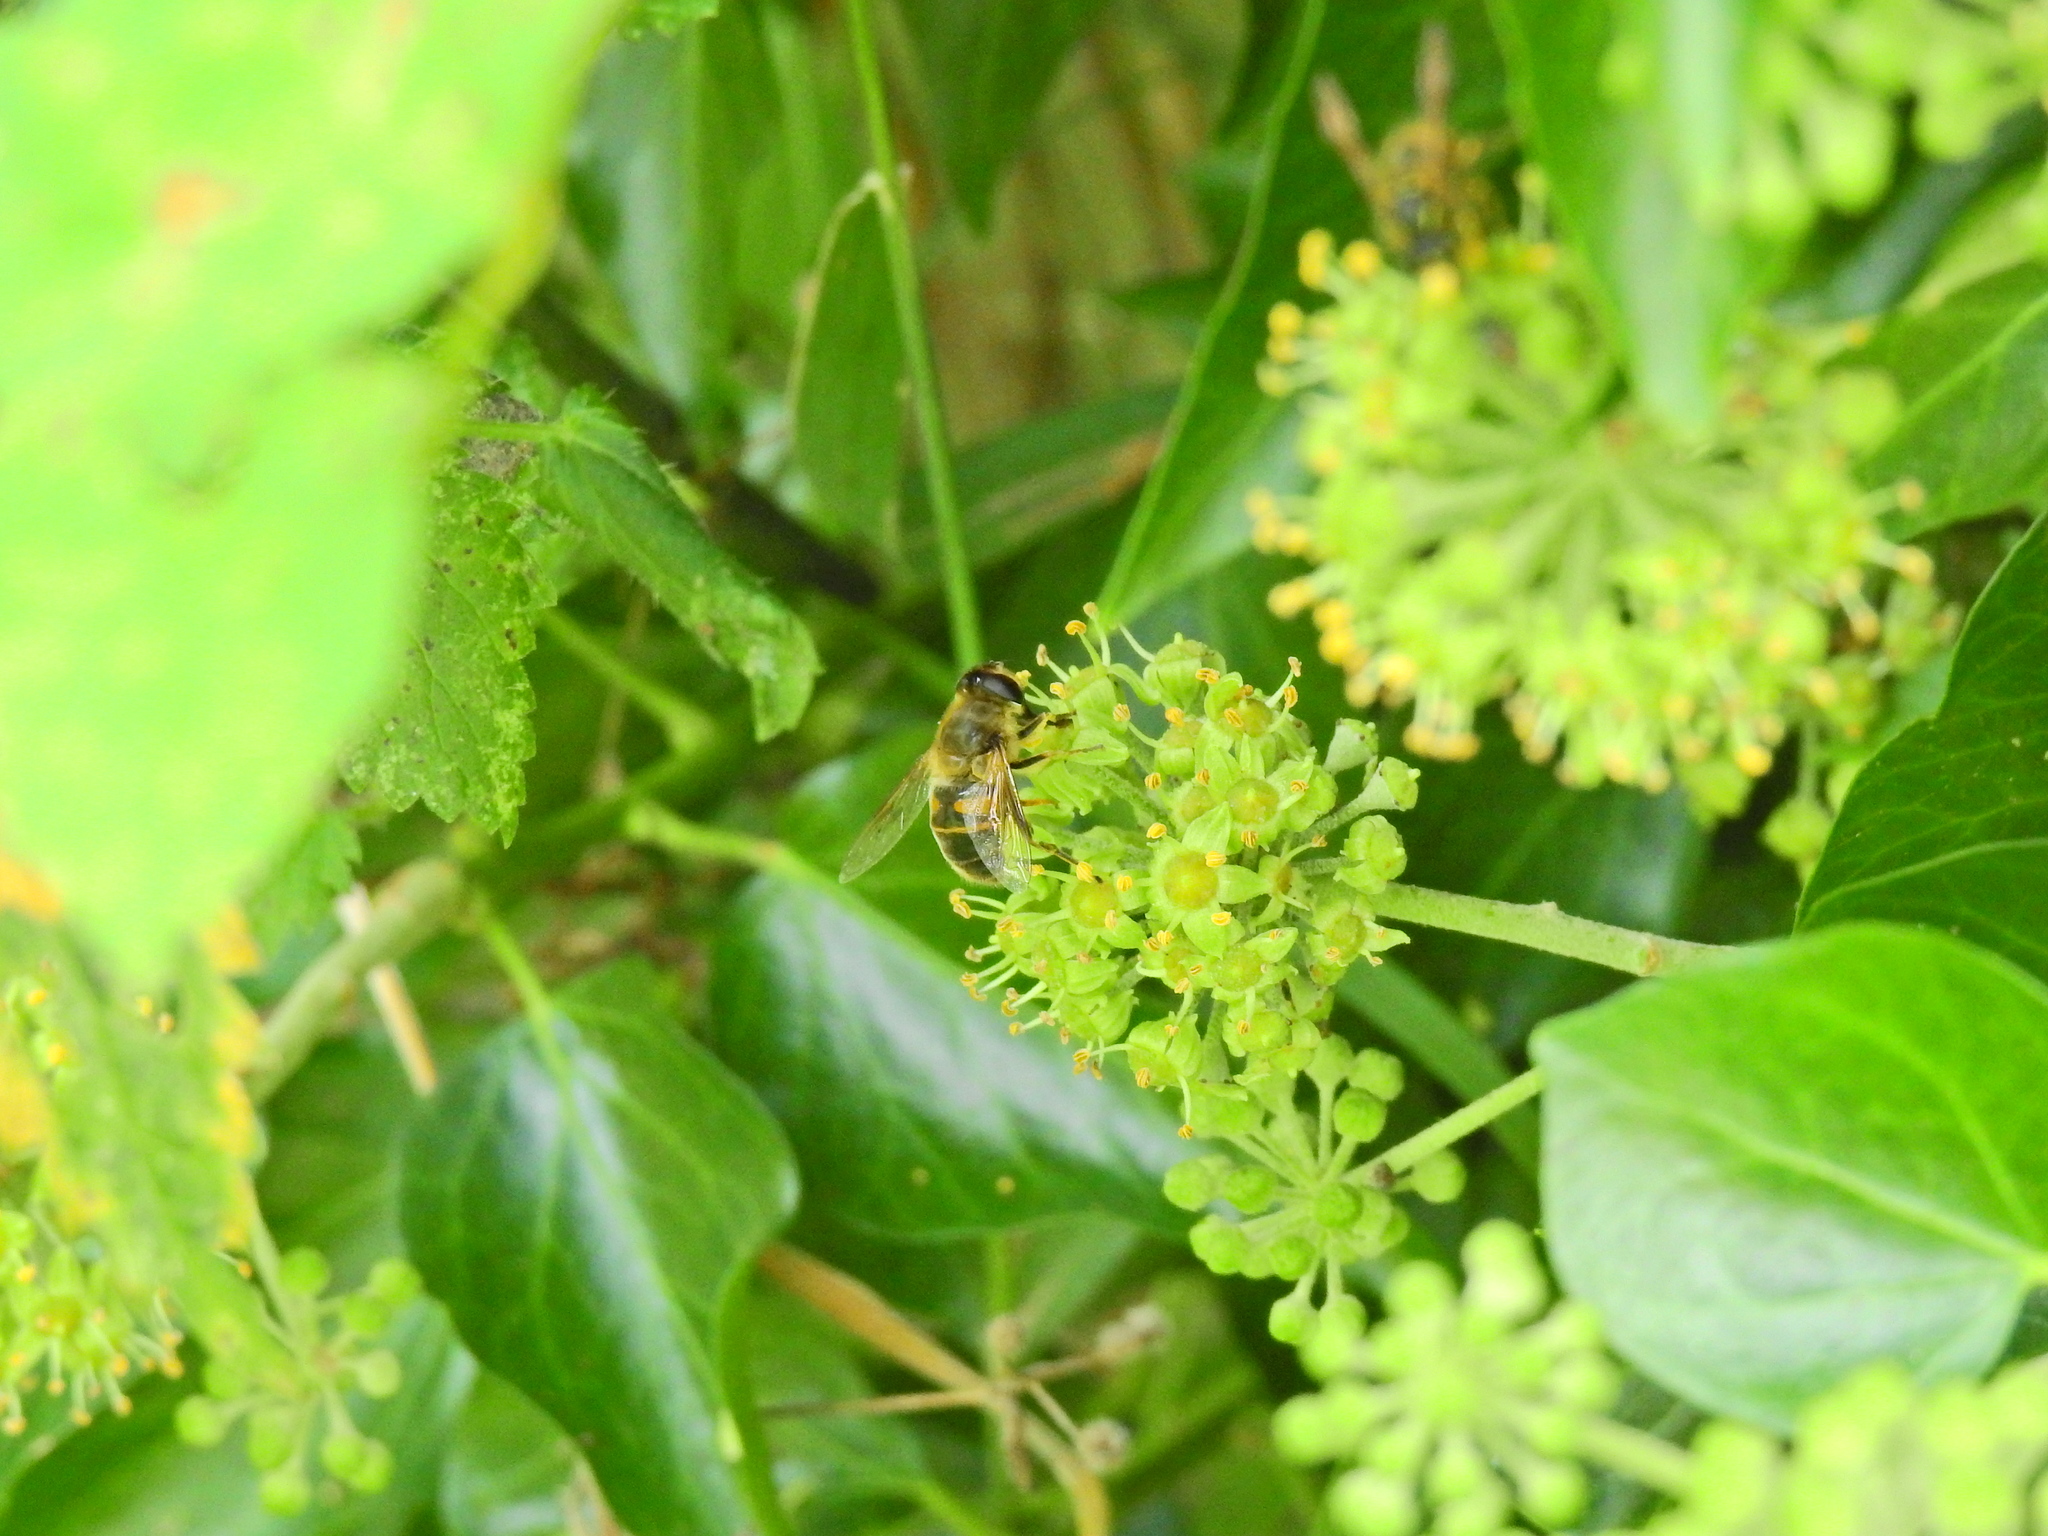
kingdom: Animalia
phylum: Arthropoda
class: Insecta
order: Diptera
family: Syrphidae
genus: Eristalis
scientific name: Eristalis tenax
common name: Drone fly
